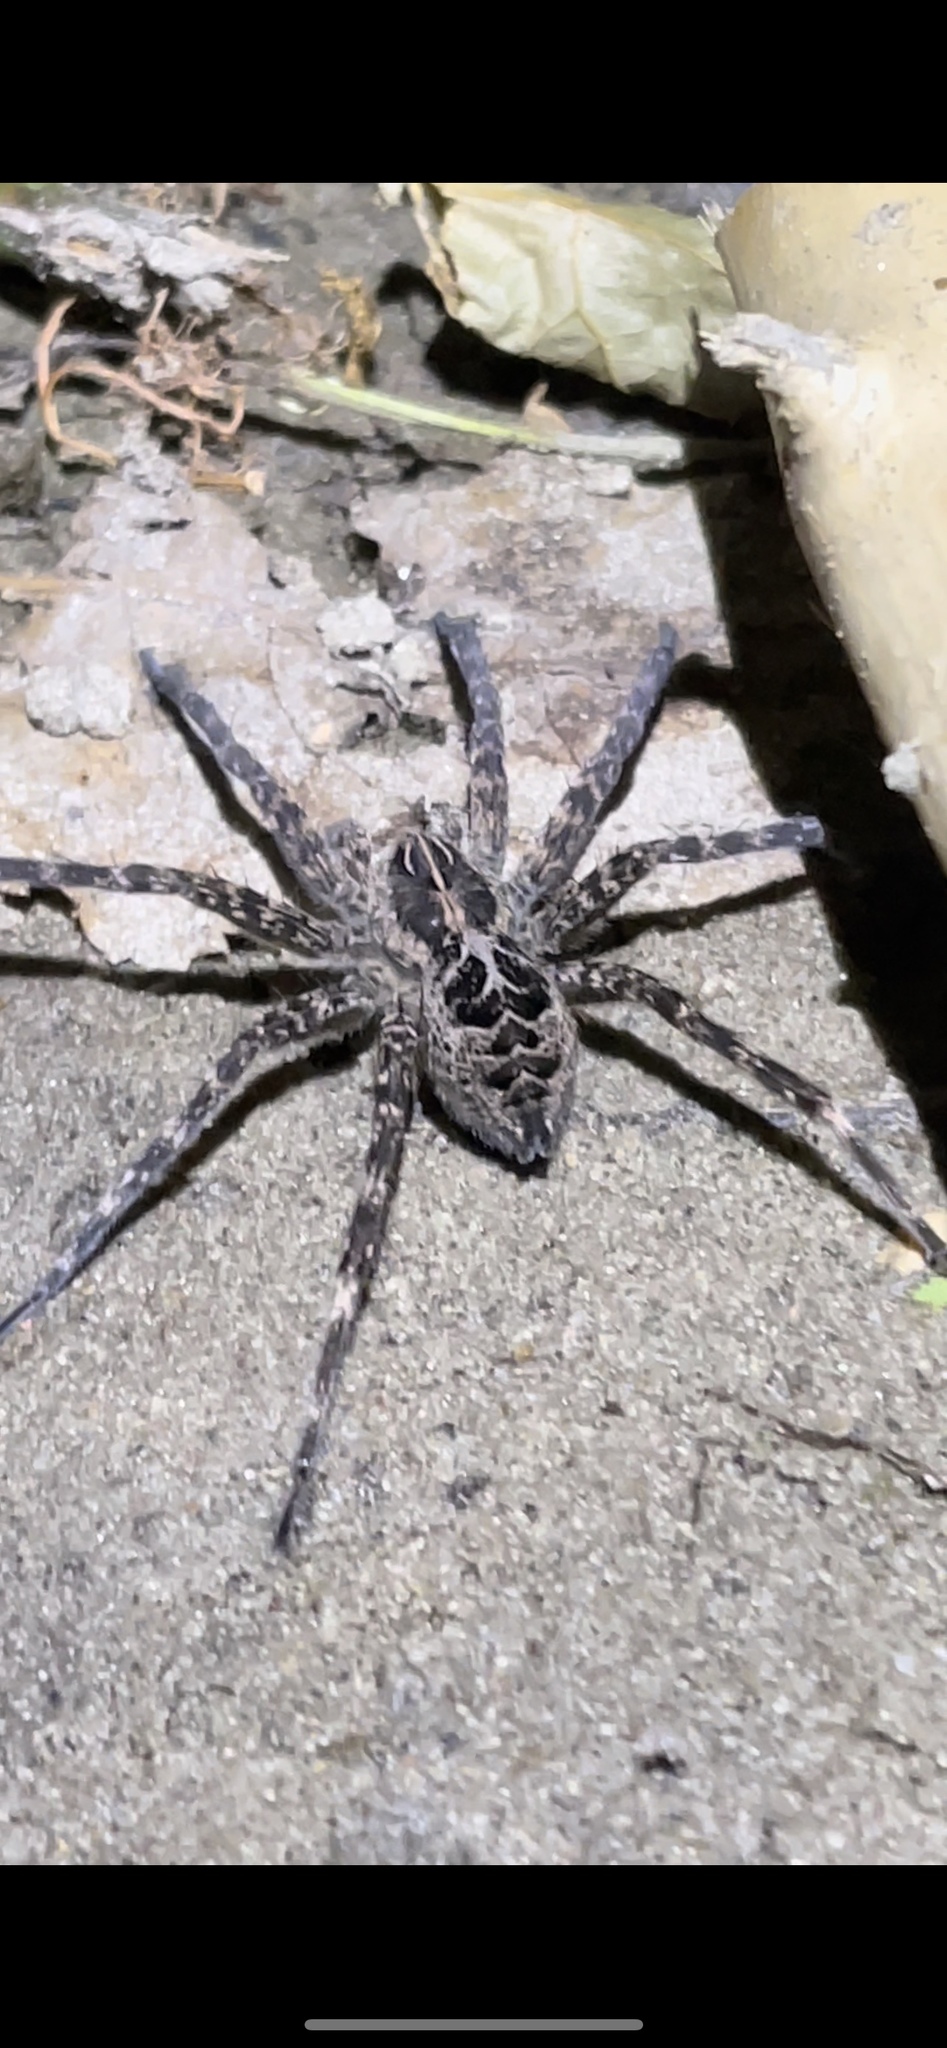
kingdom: Animalia
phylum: Arthropoda
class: Arachnida
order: Araneae
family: Pisauridae
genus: Dolomedes
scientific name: Dolomedes scriptus
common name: Striped fishing spider
